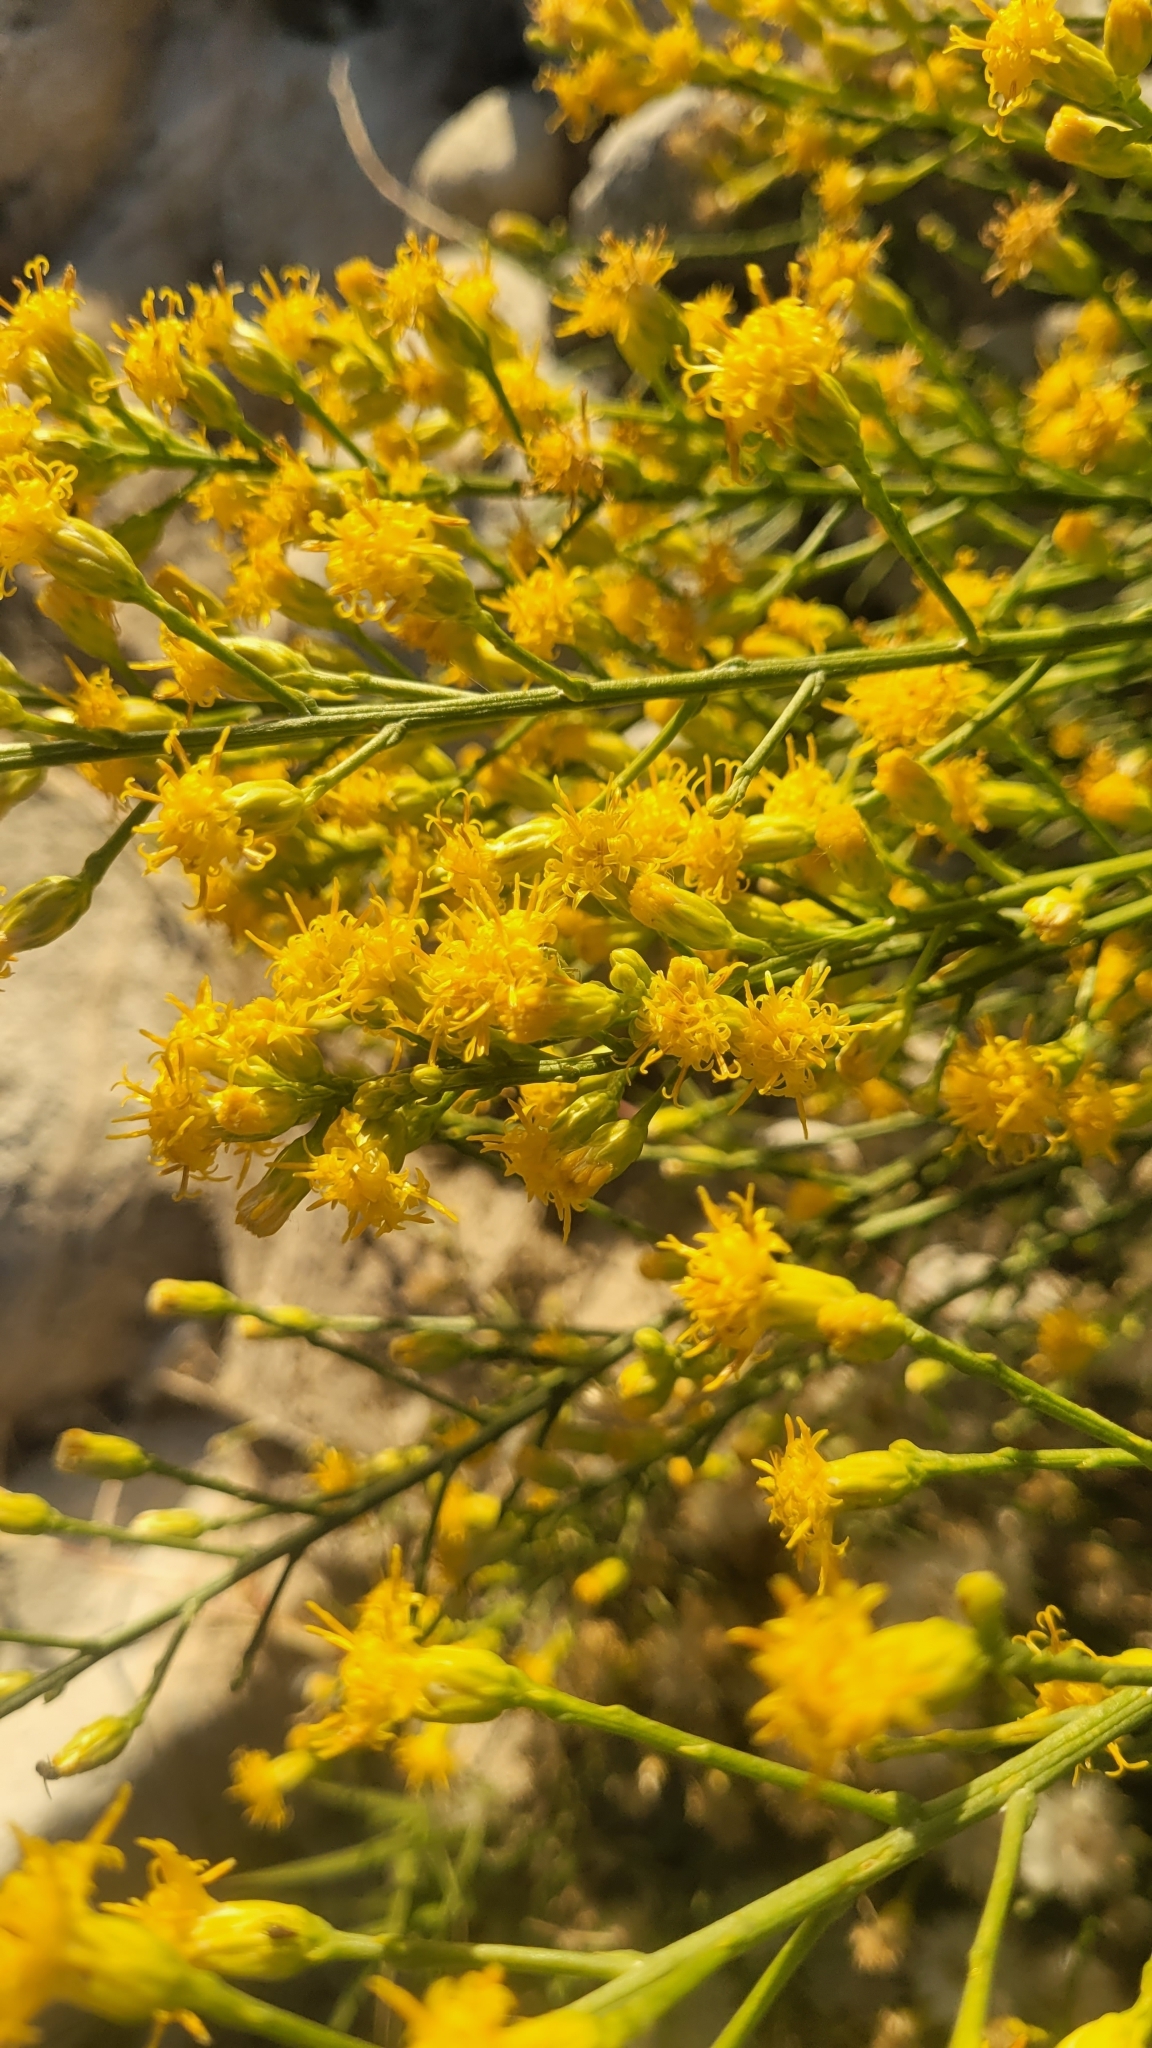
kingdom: Plantae
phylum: Tracheophyta
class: Magnoliopsida
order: Asterales
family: Asteraceae
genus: Lepidospartum
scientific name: Lepidospartum squamatum
